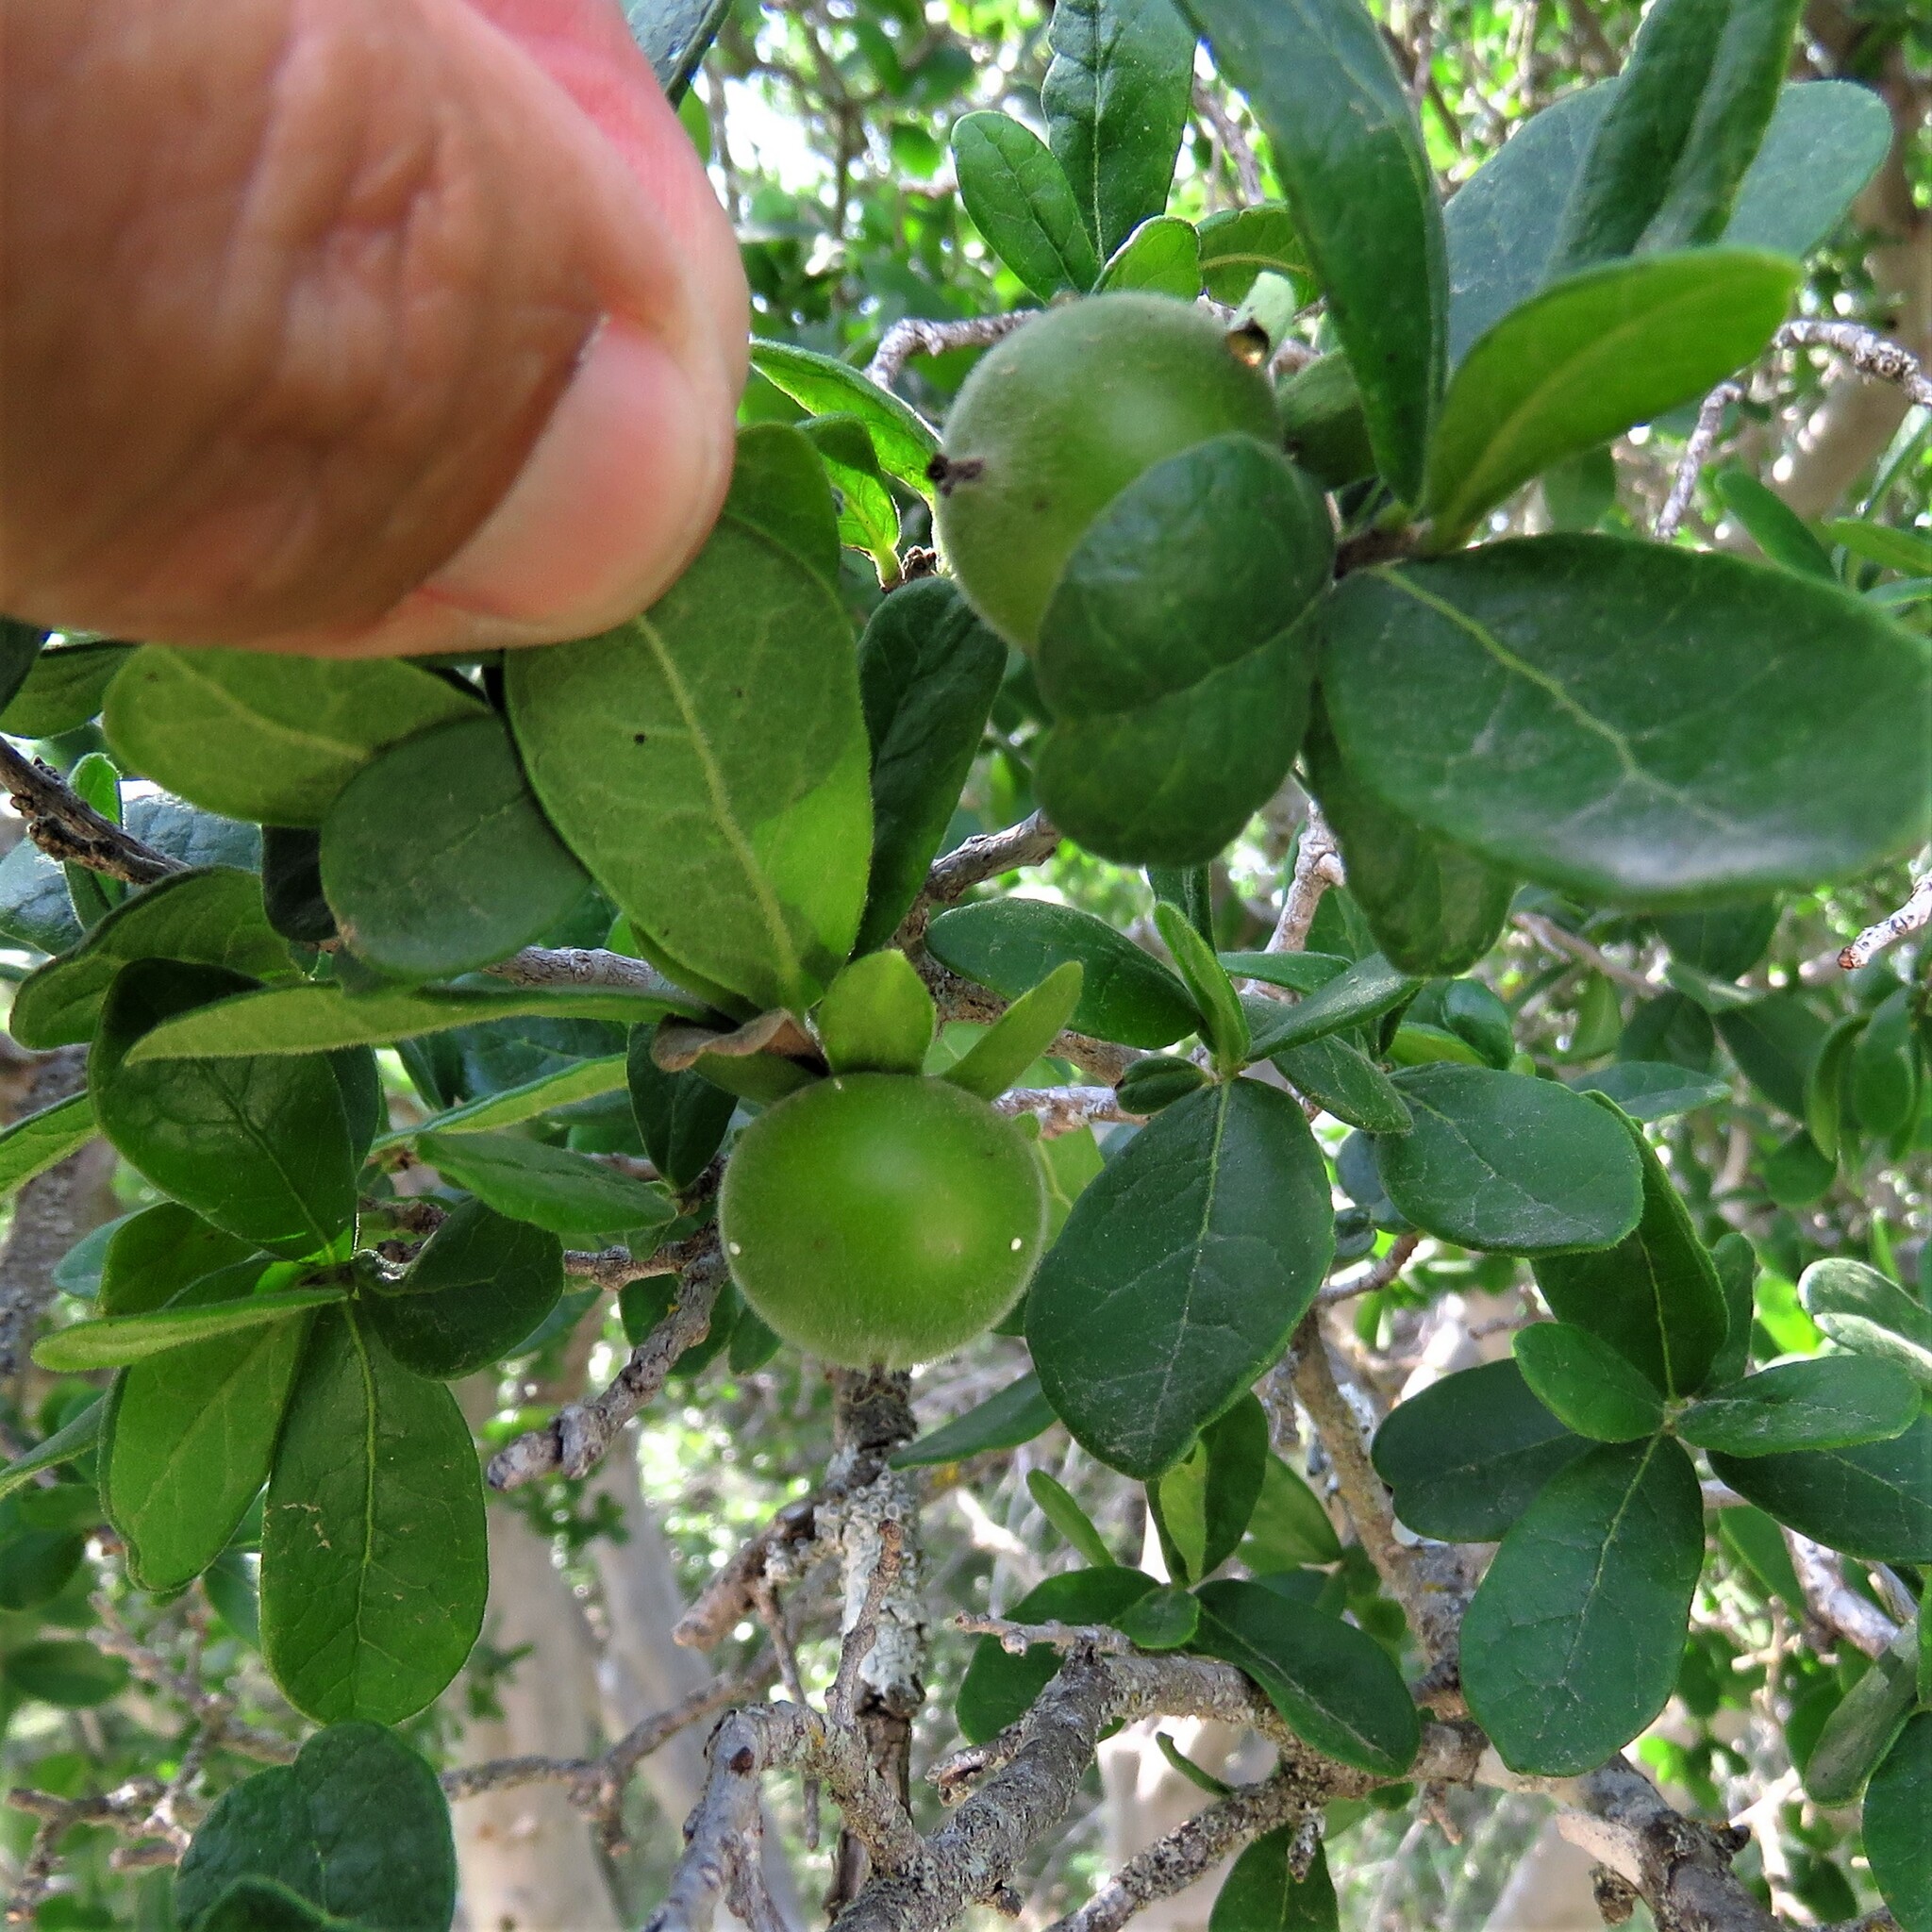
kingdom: Plantae
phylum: Tracheophyta
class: Magnoliopsida
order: Ericales
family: Ebenaceae
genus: Diospyros
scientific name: Diospyros texana
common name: Texas persimmon
